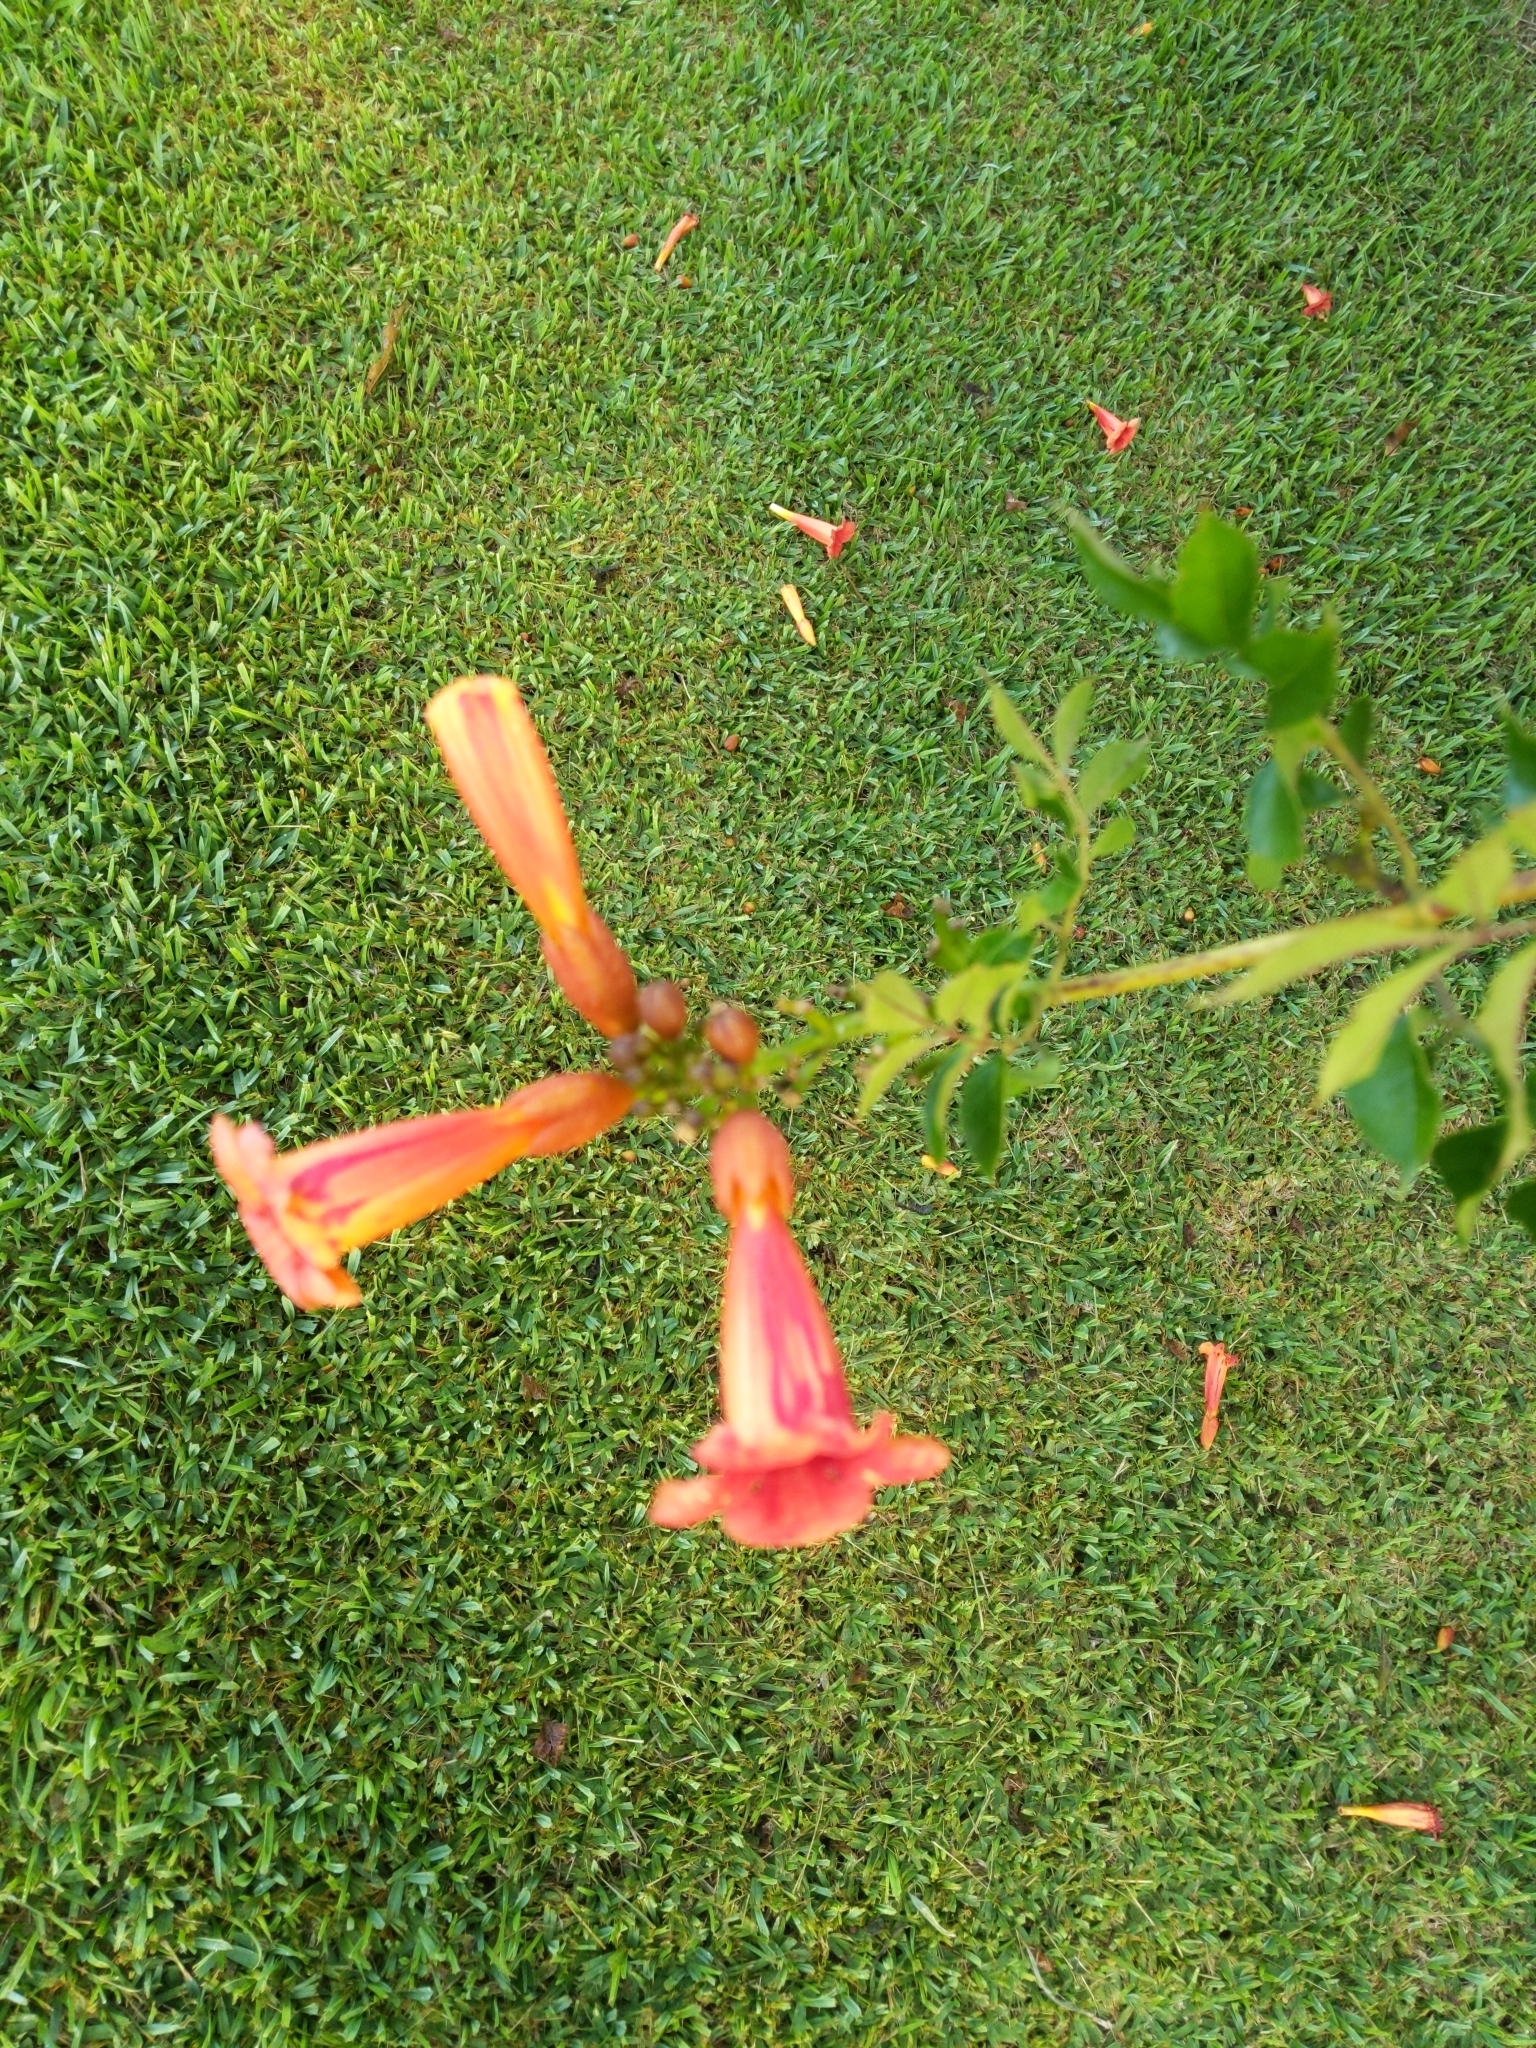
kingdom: Plantae
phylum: Tracheophyta
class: Magnoliopsida
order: Lamiales
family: Bignoniaceae
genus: Campsis
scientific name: Campsis radicans
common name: Trumpet-creeper
